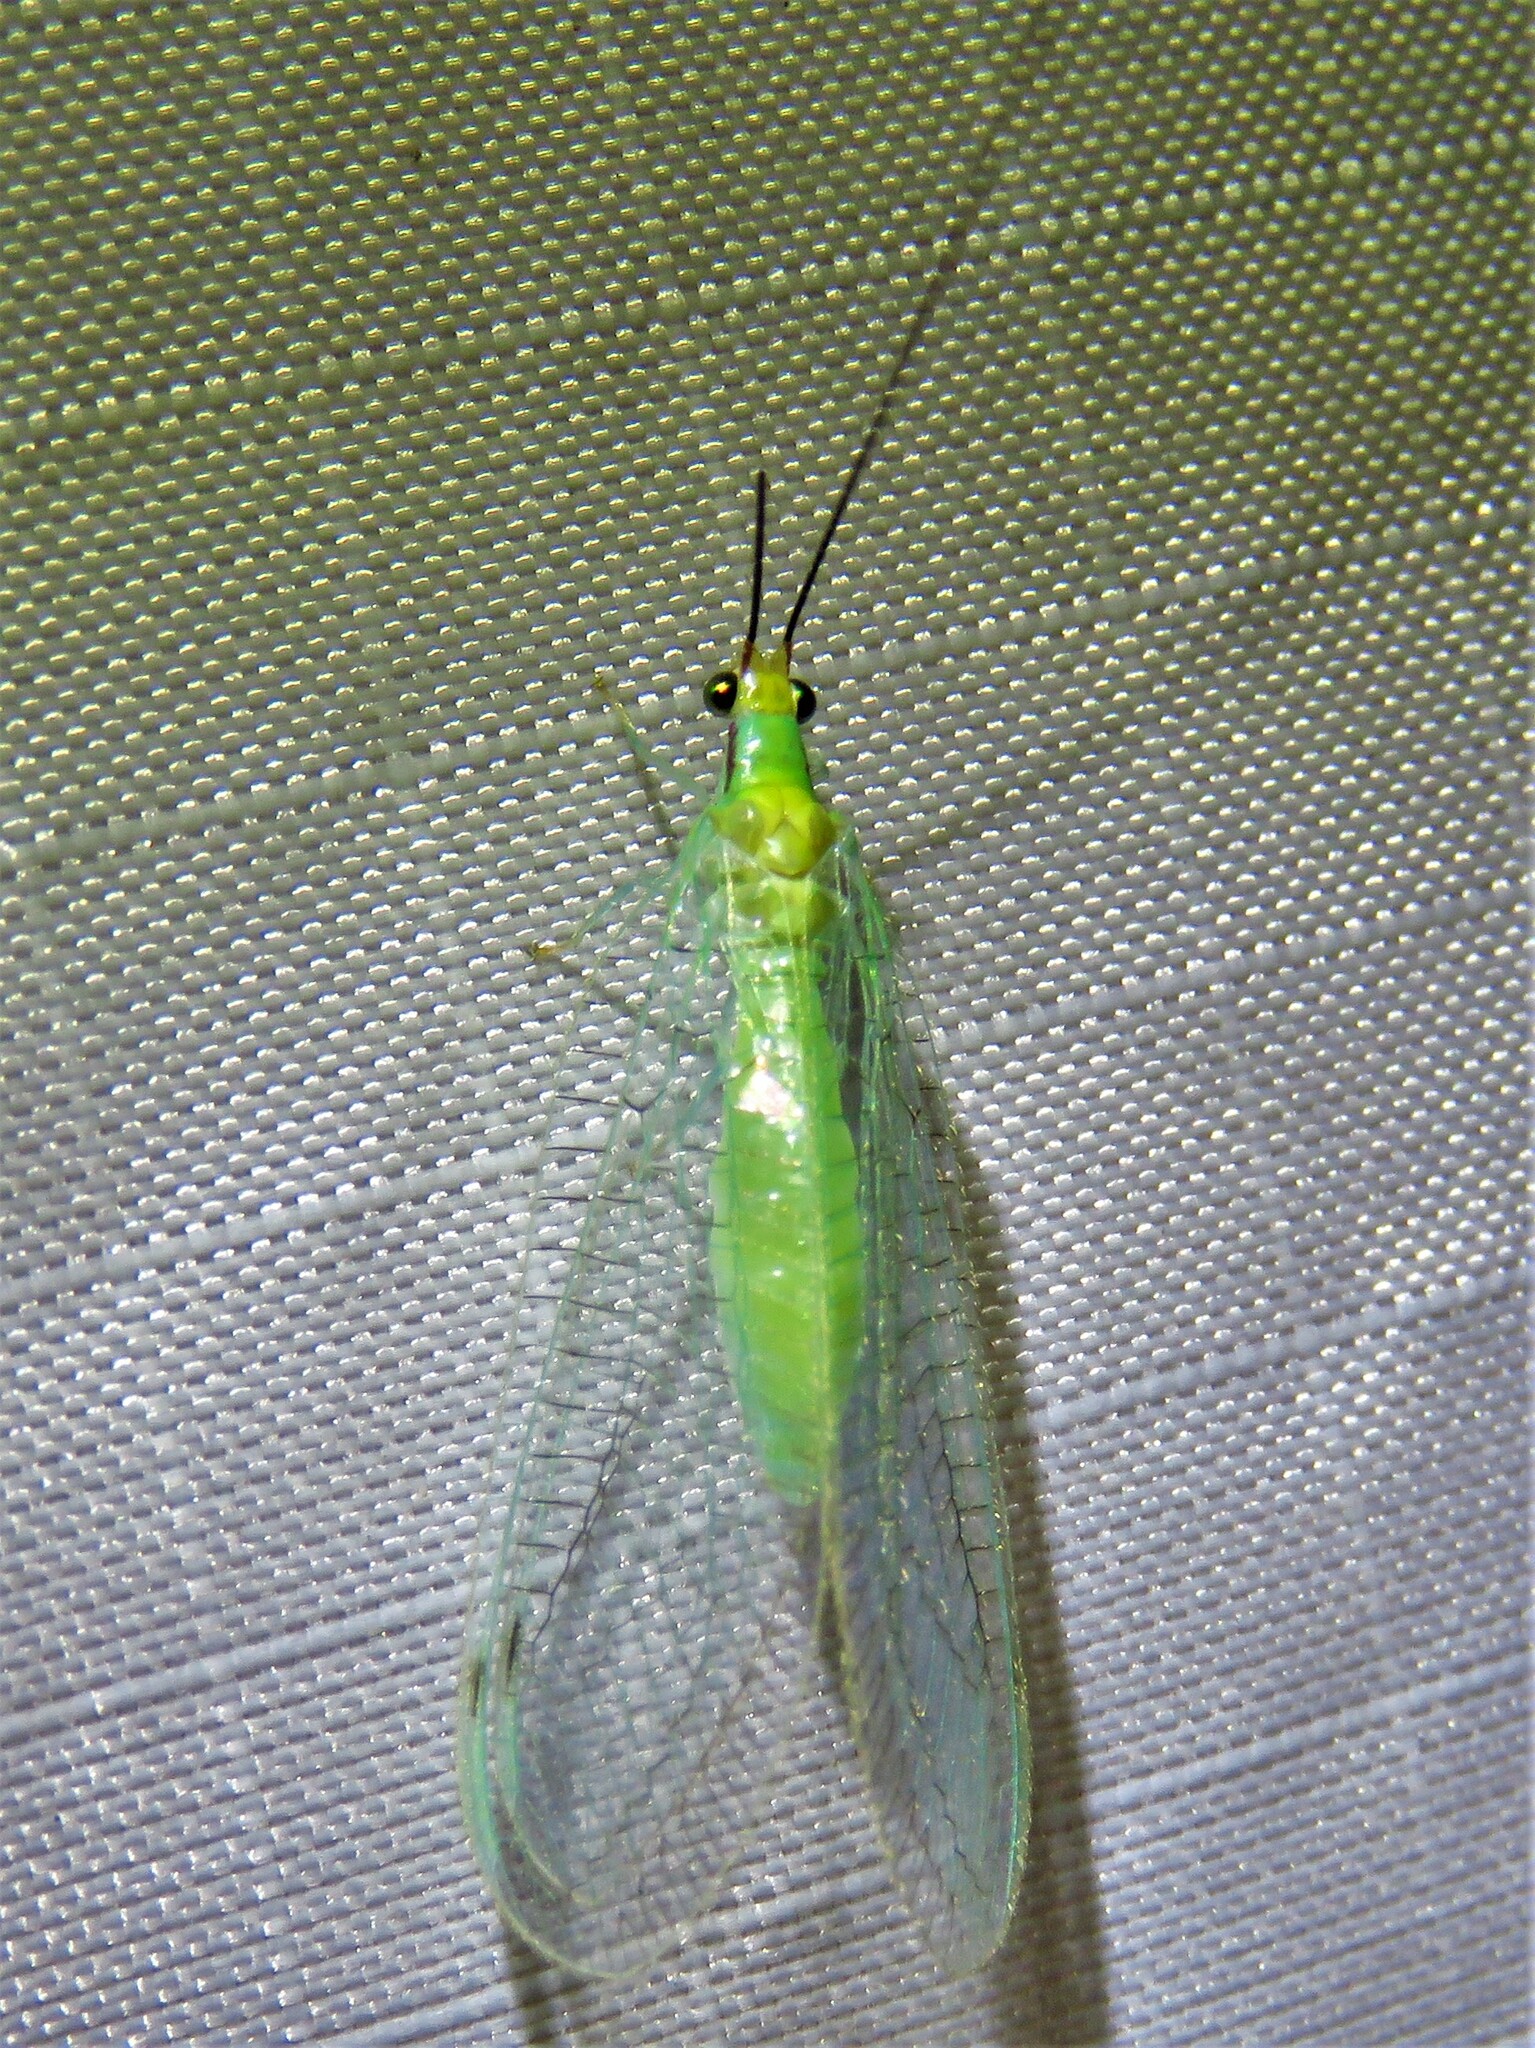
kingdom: Animalia
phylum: Arthropoda
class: Insecta
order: Neuroptera
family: Chrysopidae
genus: Leucochrysa
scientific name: Leucochrysa pavida
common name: Lichen-carrying green lacewing
